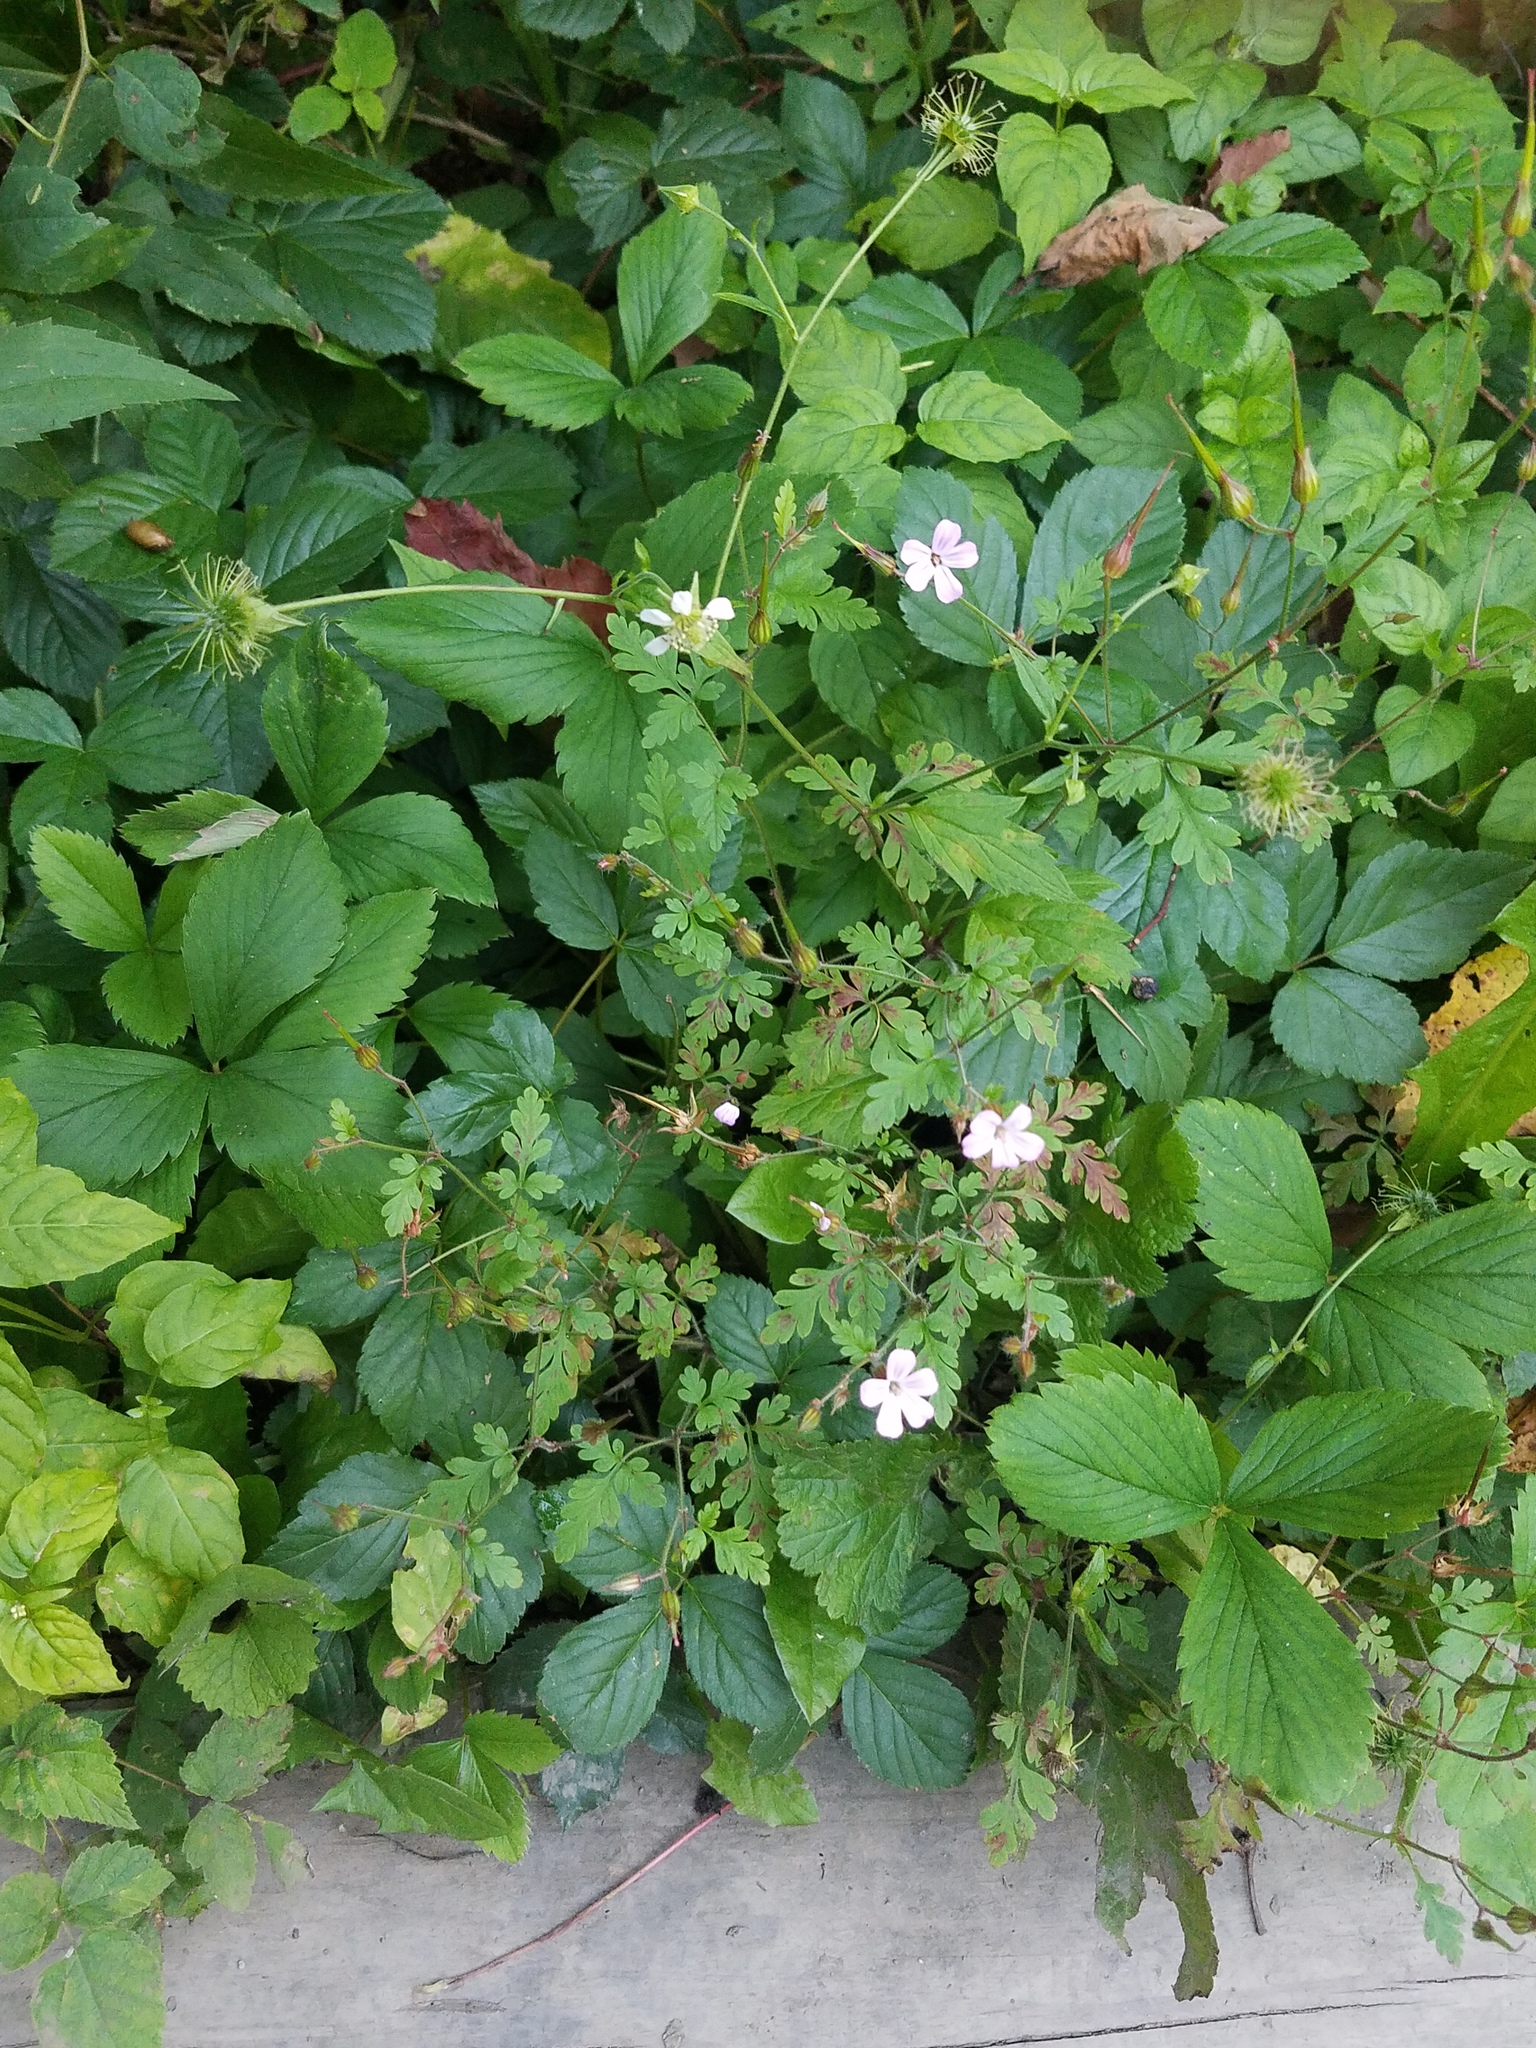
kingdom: Plantae
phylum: Tracheophyta
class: Magnoliopsida
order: Geraniales
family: Geraniaceae
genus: Geranium
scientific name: Geranium robertianum
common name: Herb-robert
